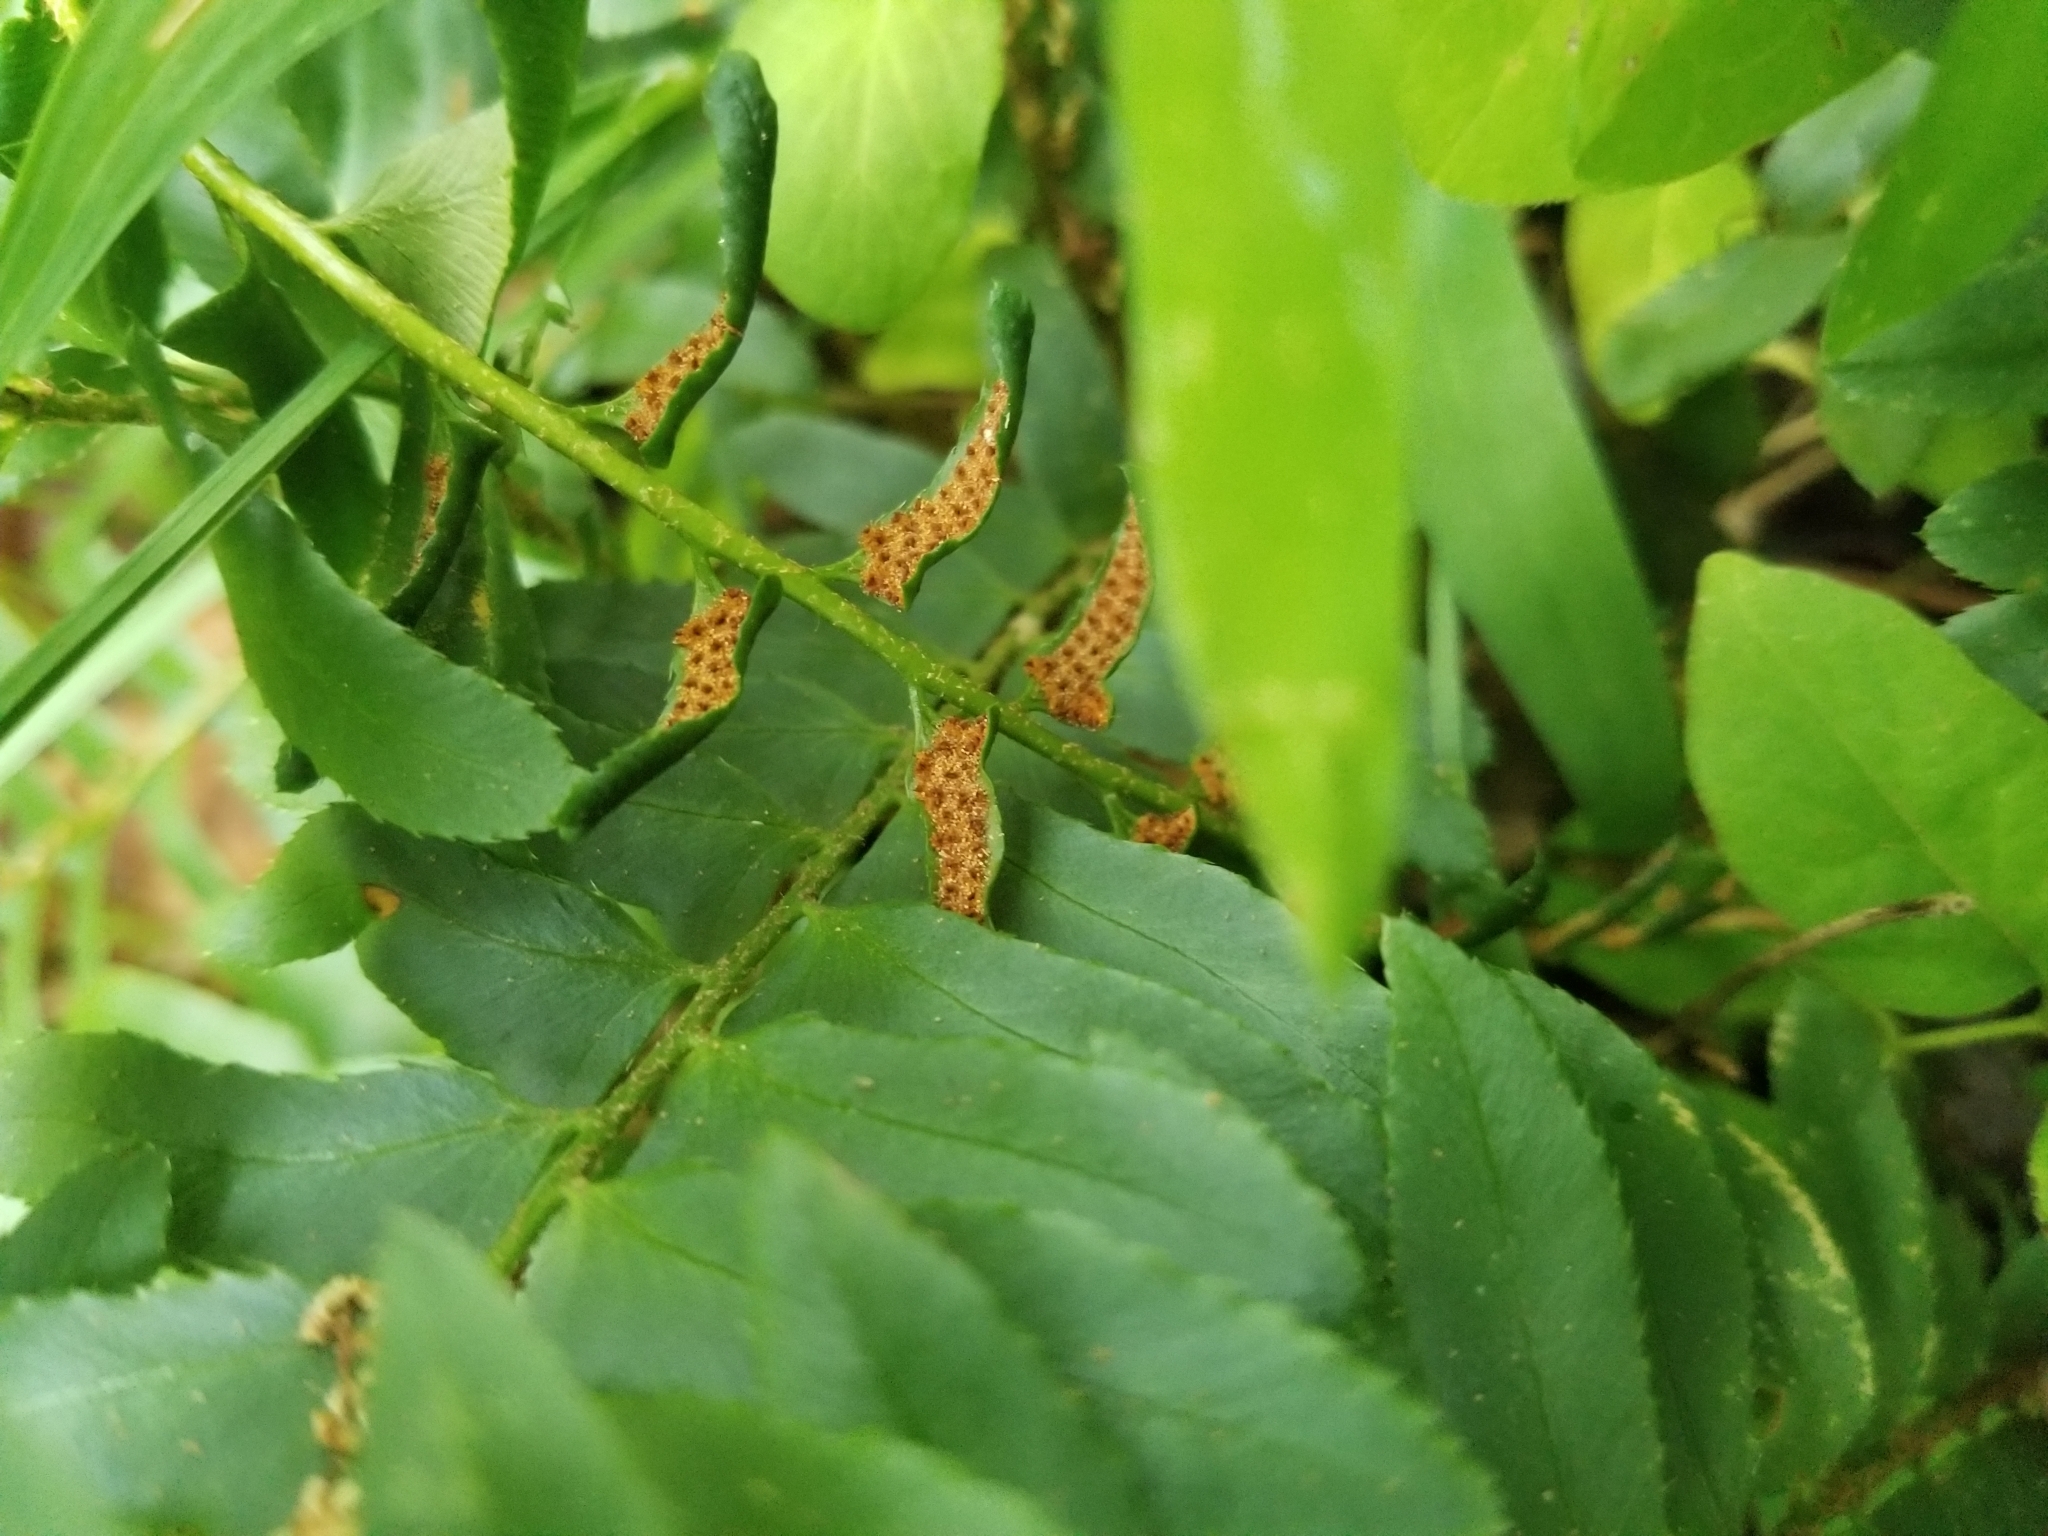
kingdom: Plantae
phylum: Tracheophyta
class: Polypodiopsida
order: Polypodiales
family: Dryopteridaceae
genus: Polystichum
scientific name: Polystichum acrostichoides
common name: Christmas fern
